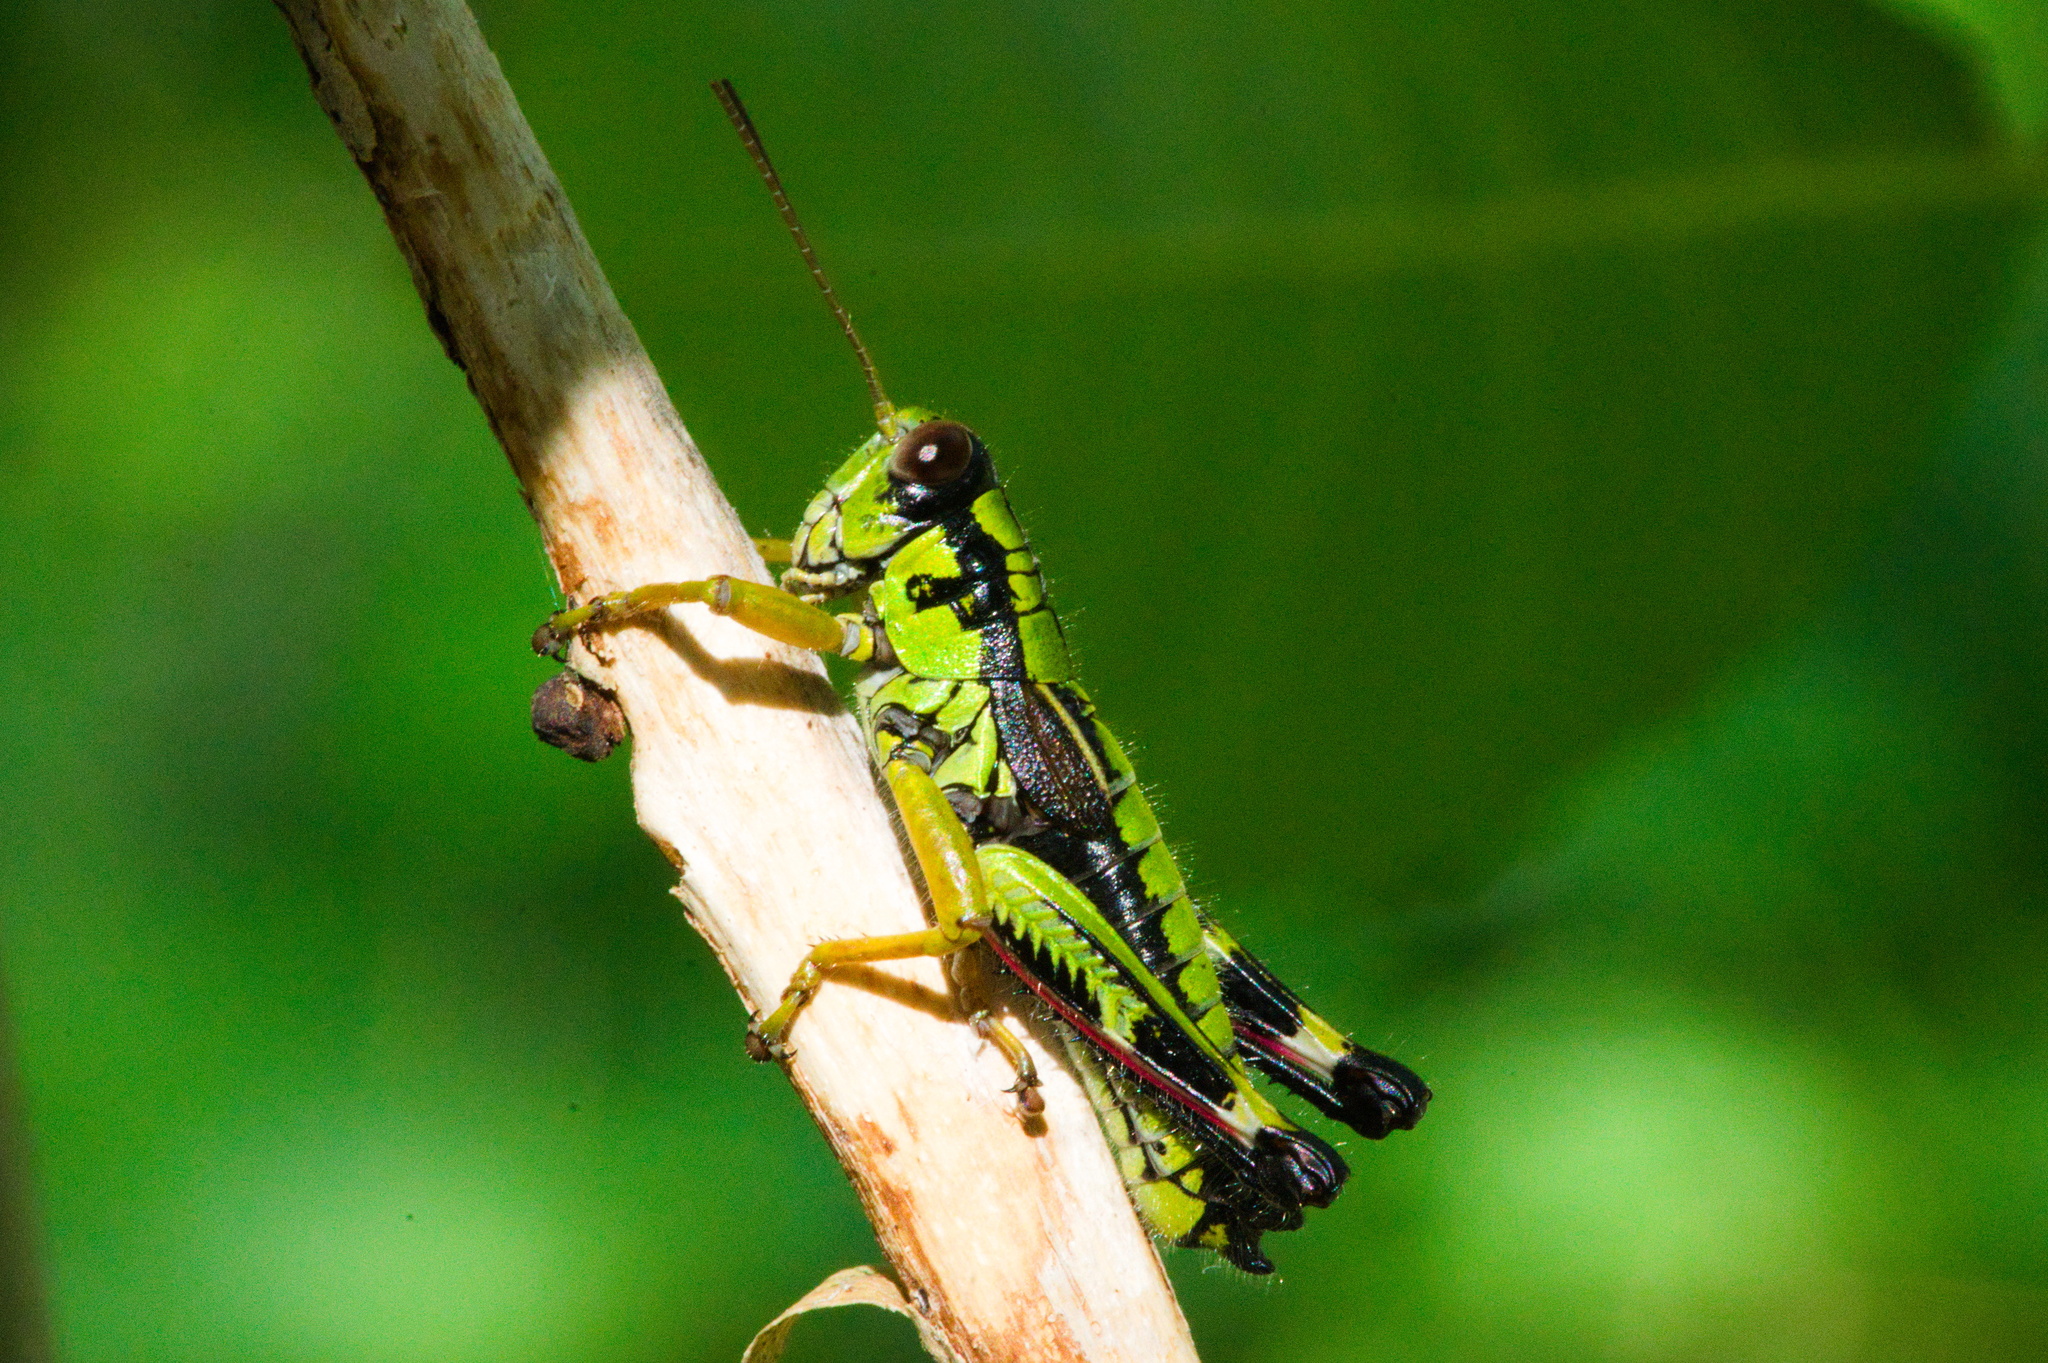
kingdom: Animalia
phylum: Arthropoda
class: Insecta
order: Orthoptera
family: Acrididae
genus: Miramella
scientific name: Miramella alpina
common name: Green mountain grasshopper
